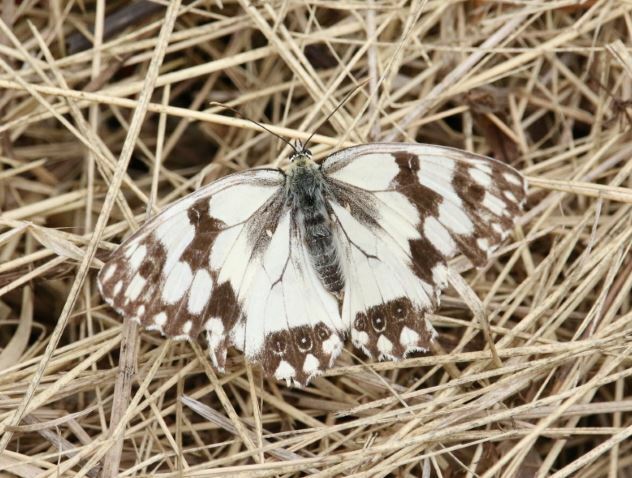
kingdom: Animalia
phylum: Arthropoda
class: Insecta
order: Lepidoptera
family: Nymphalidae
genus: Melanargia
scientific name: Melanargia lachesis
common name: Iberian marbled white
